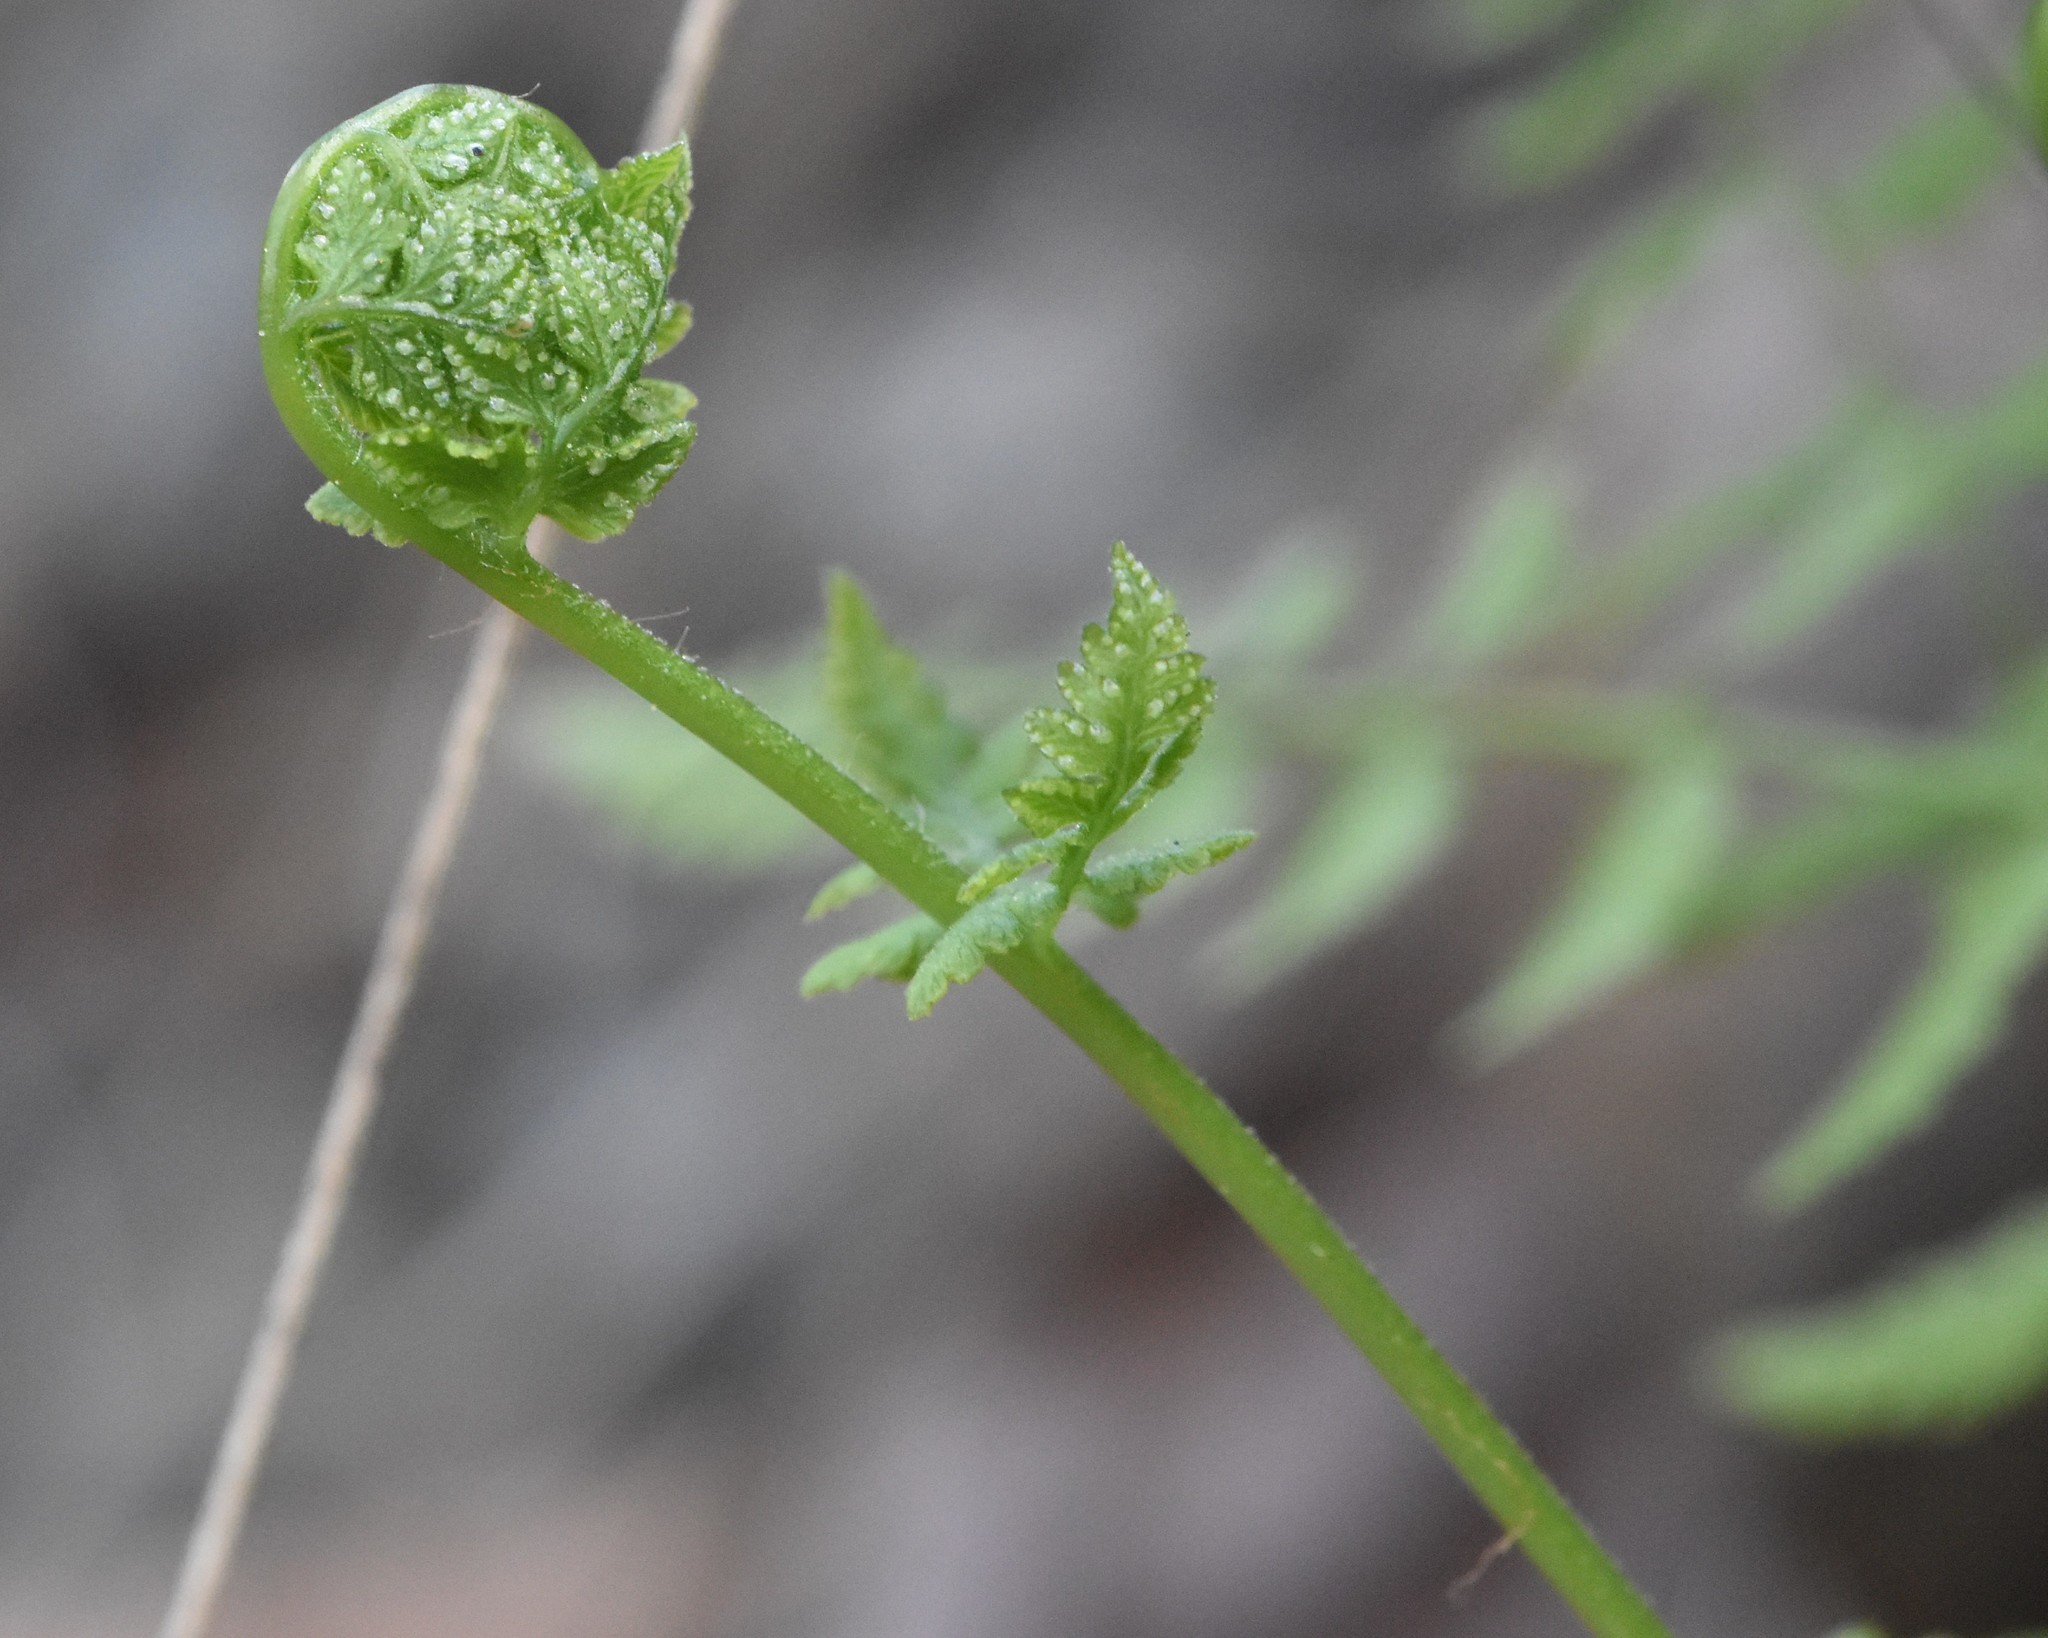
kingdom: Plantae
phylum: Tracheophyta
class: Polypodiopsida
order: Polypodiales
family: Cystopteridaceae
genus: Cystopteris
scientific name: Cystopteris fragilis
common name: Brittle bladder fern
